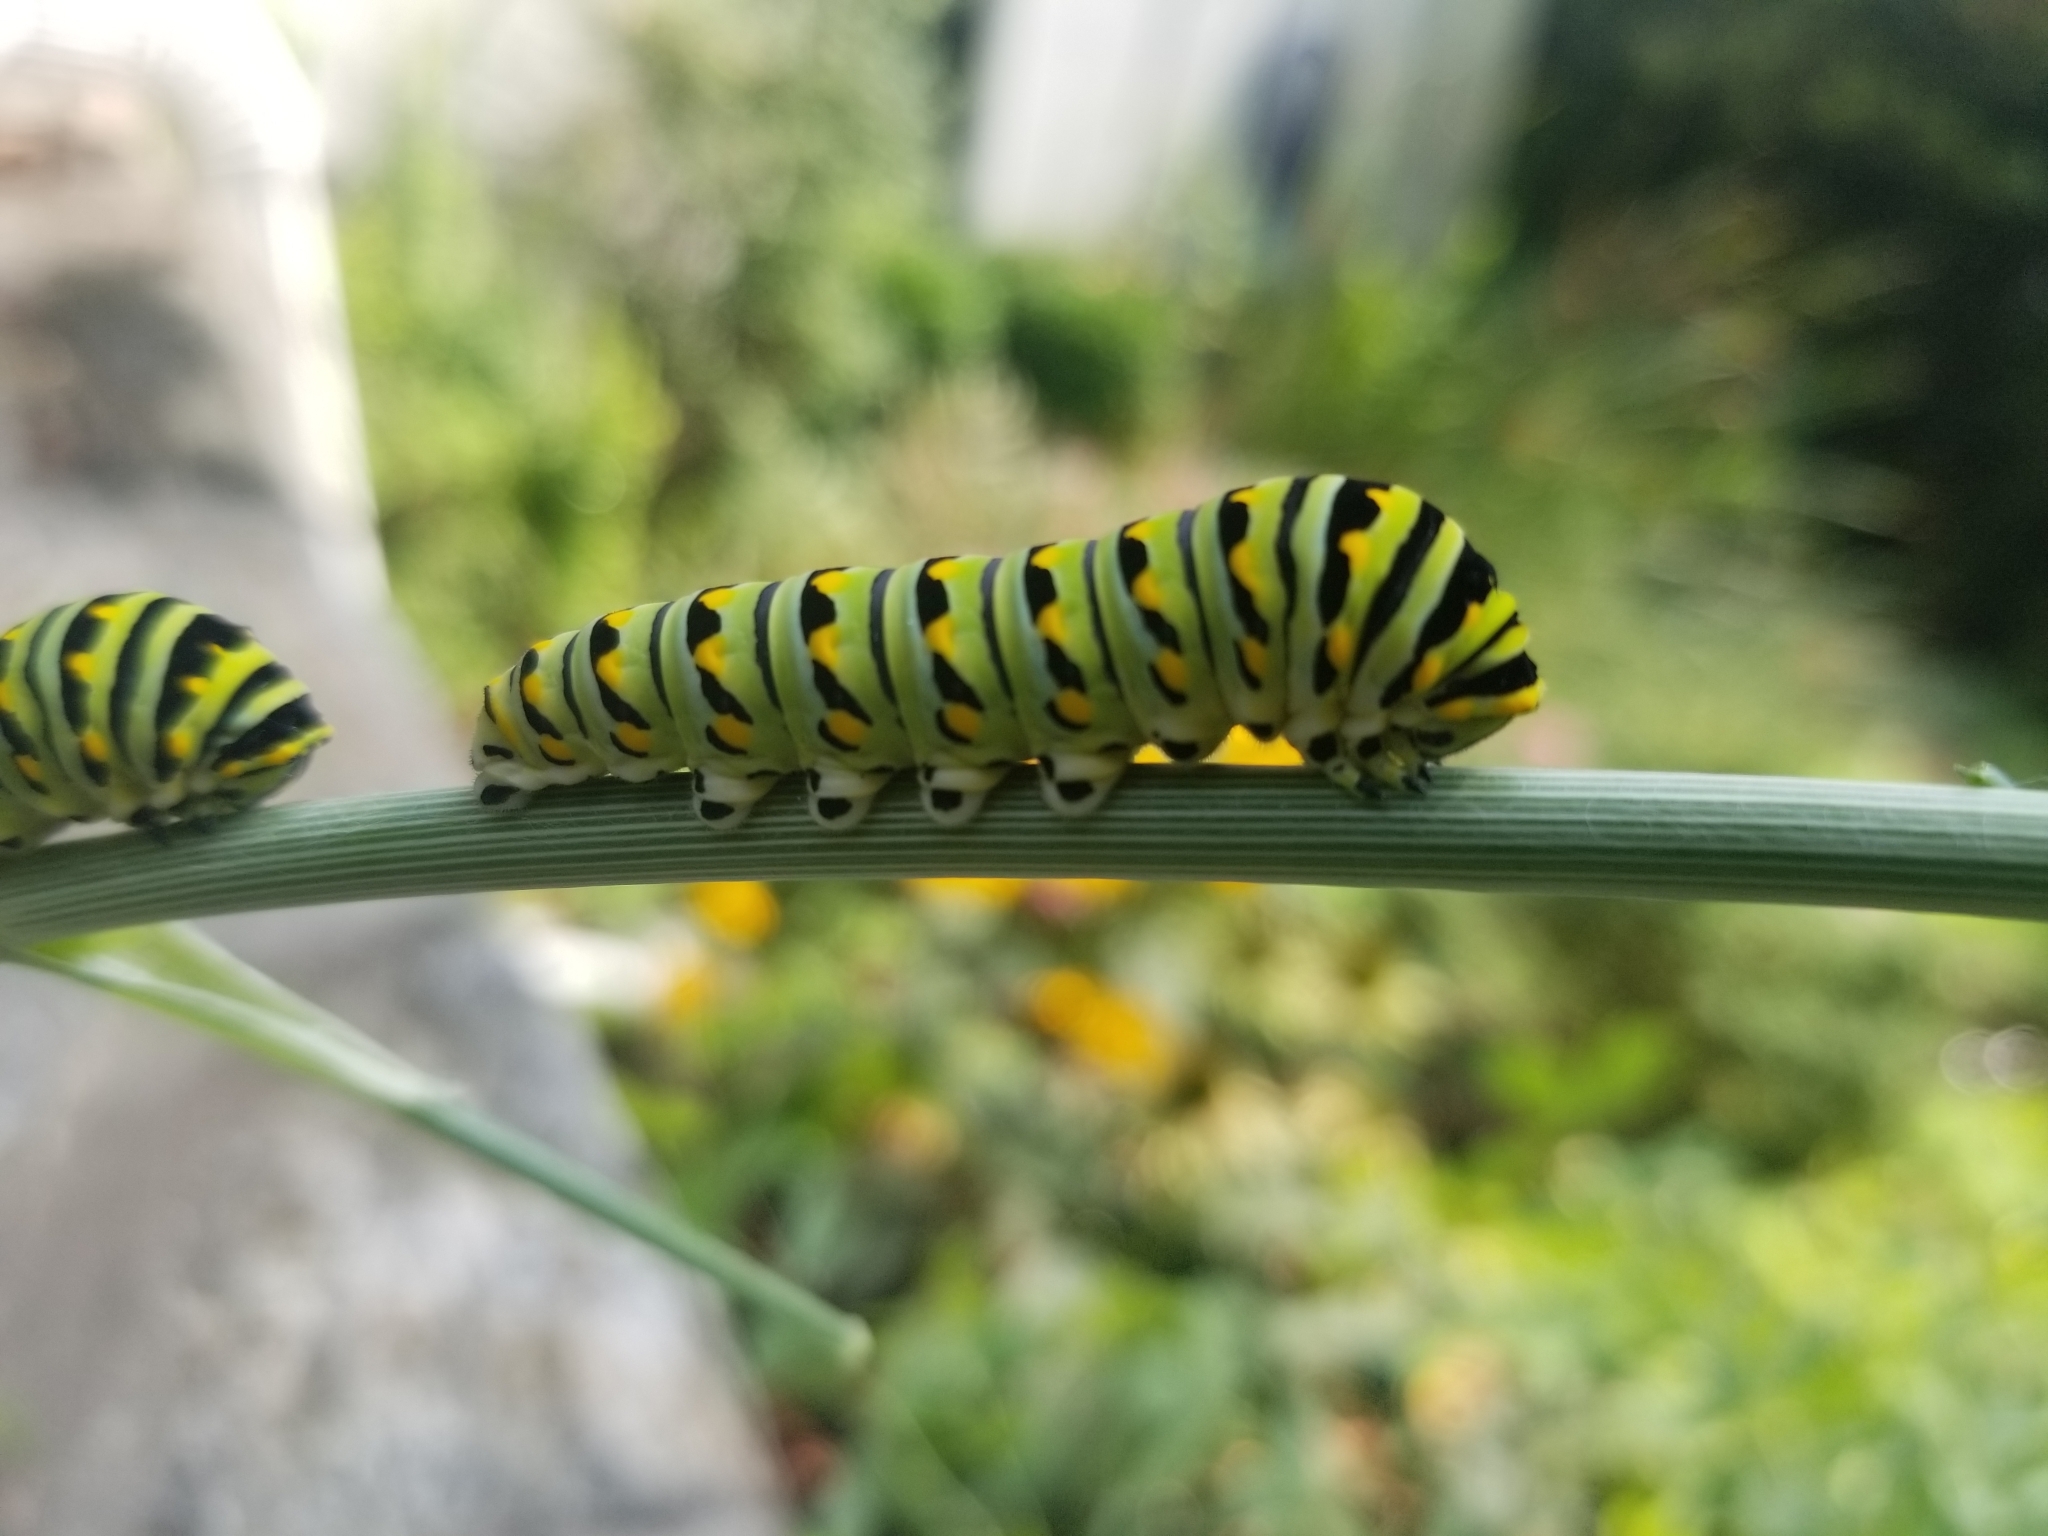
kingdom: Animalia
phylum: Arthropoda
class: Insecta
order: Lepidoptera
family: Papilionidae
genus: Papilio
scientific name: Papilio polyxenes
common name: Black swallowtail
